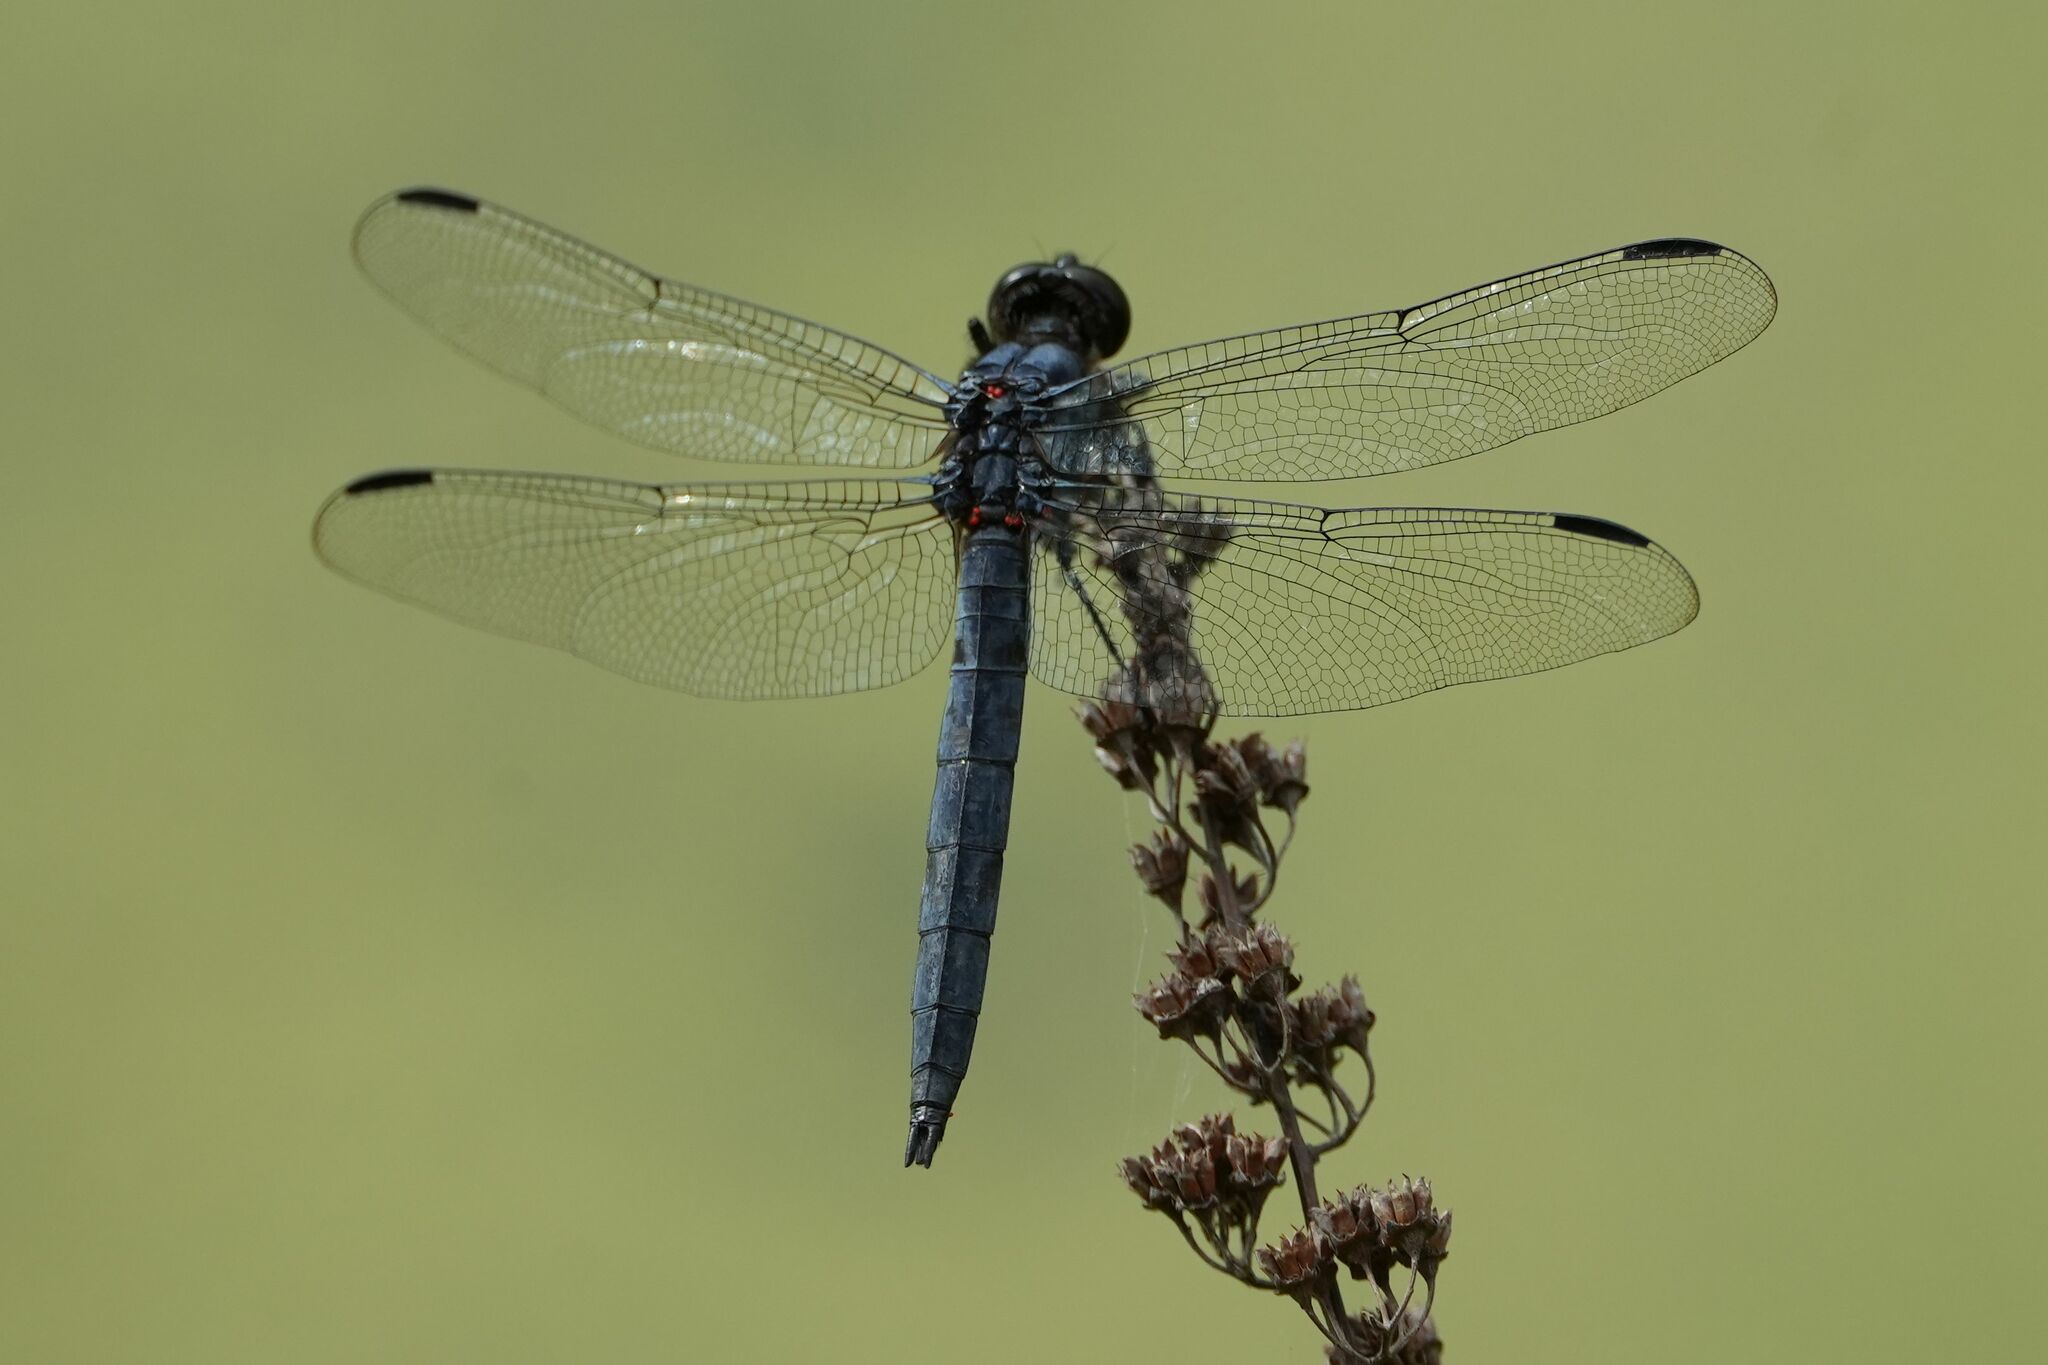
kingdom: Animalia
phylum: Arthropoda
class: Insecta
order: Odonata
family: Libellulidae
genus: Libellula
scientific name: Libellula incesta
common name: Slaty skimmer
